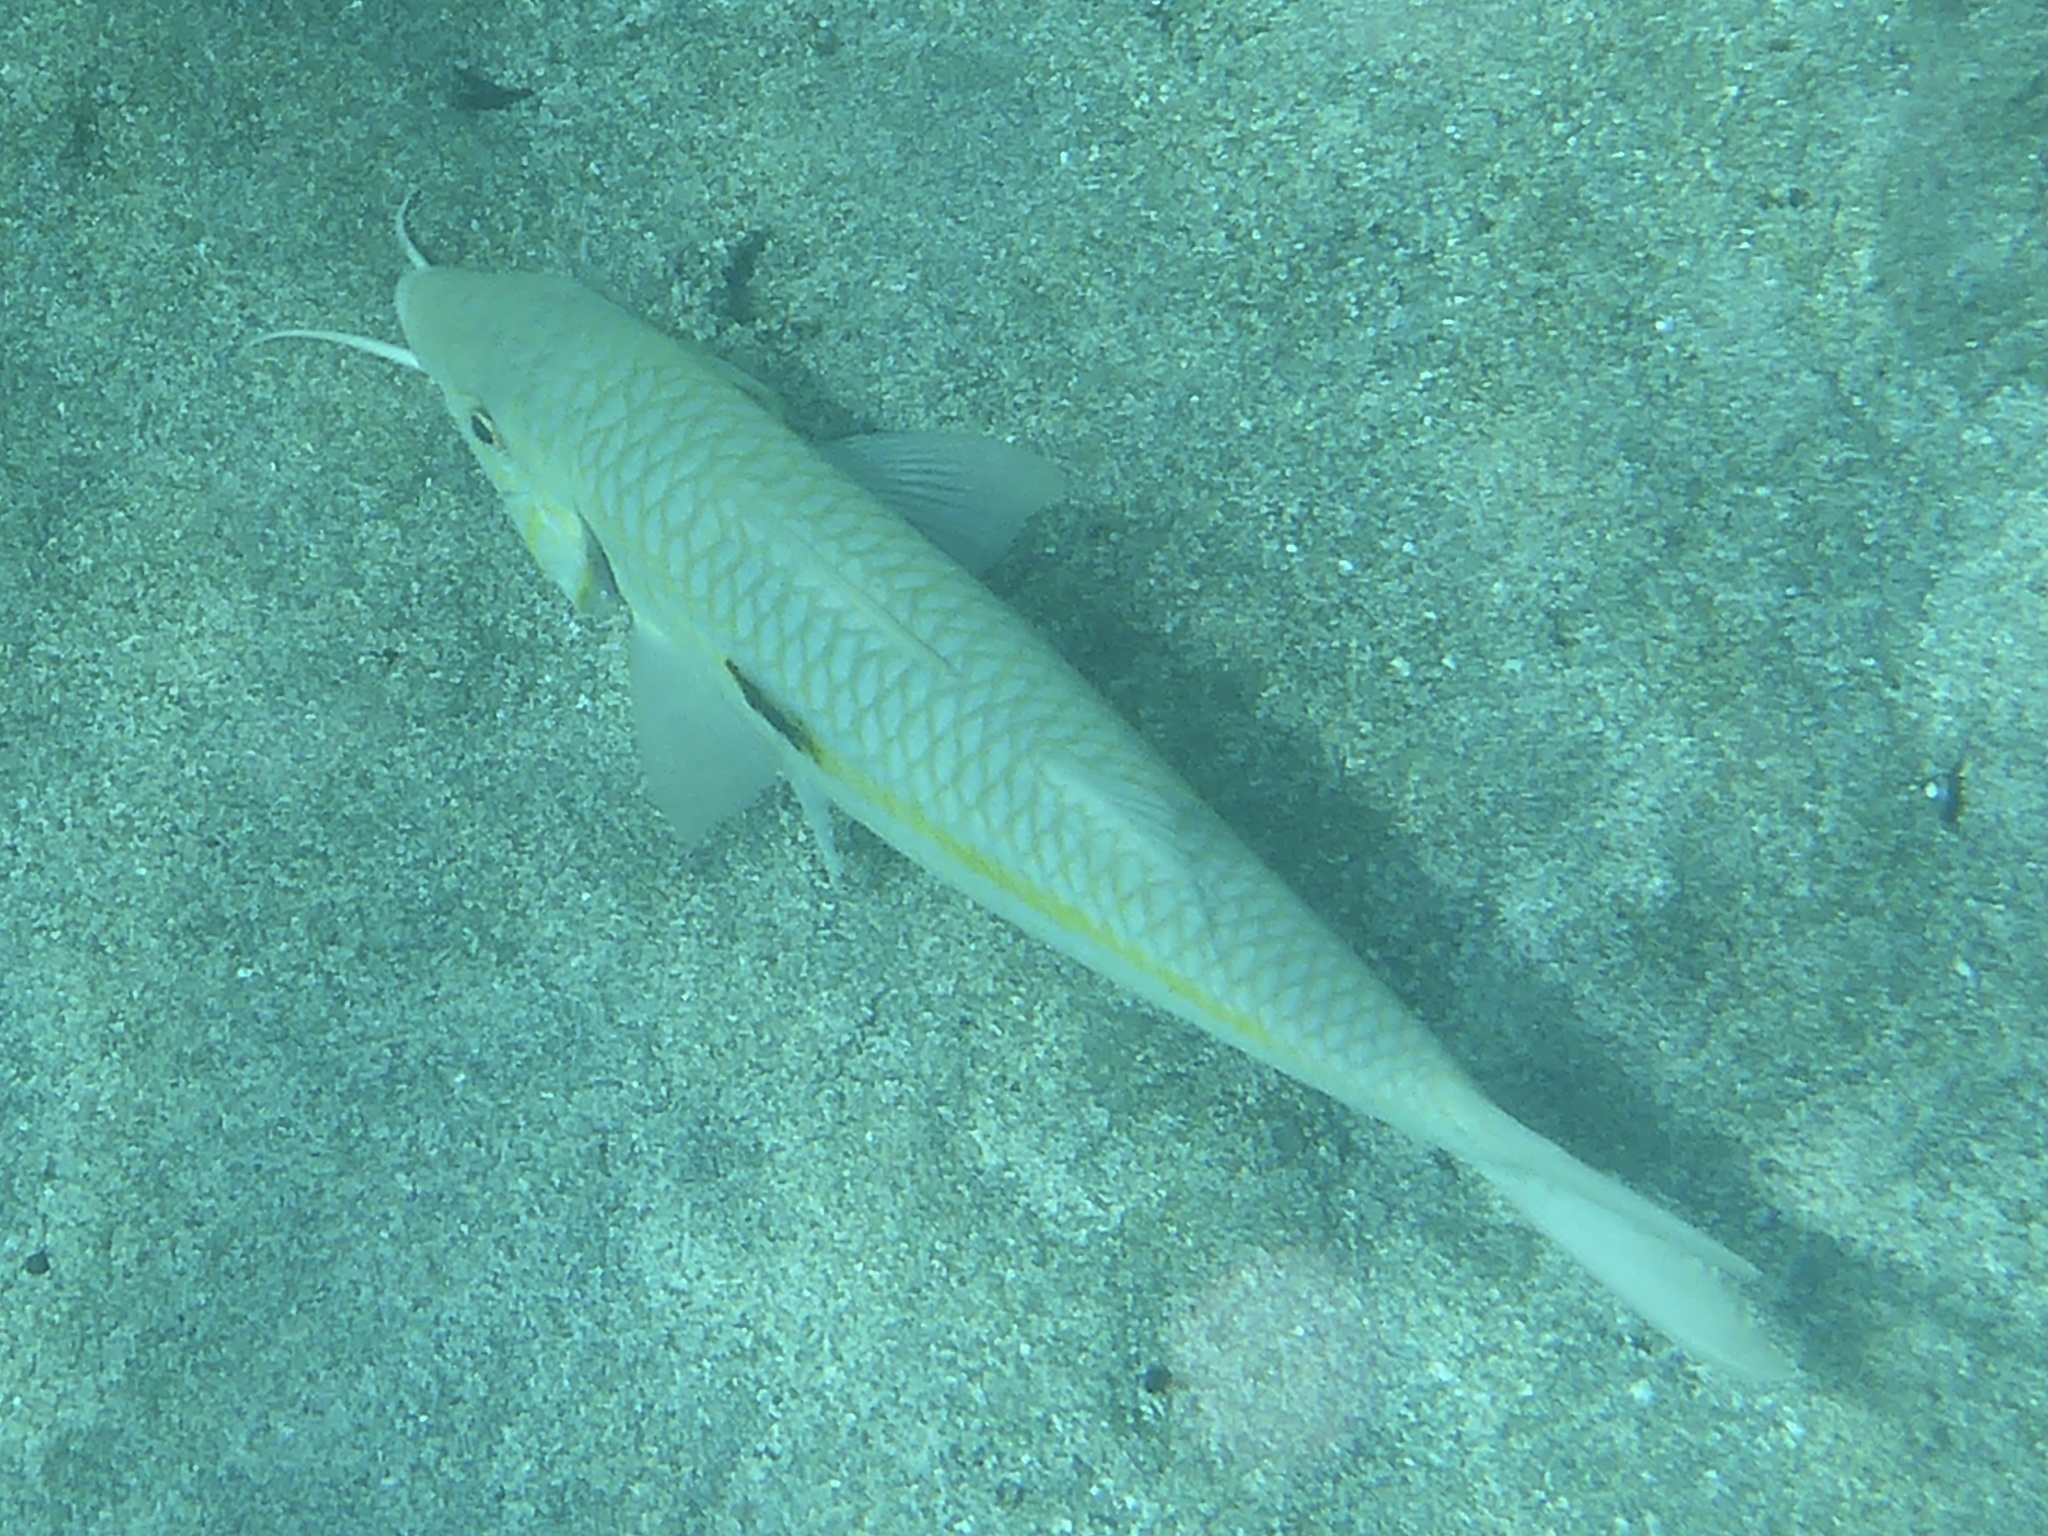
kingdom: Animalia
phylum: Chordata
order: Perciformes
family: Mullidae
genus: Mulloidichthys
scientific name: Mulloidichthys flavolineatus
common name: Yellowstripe goatfish
